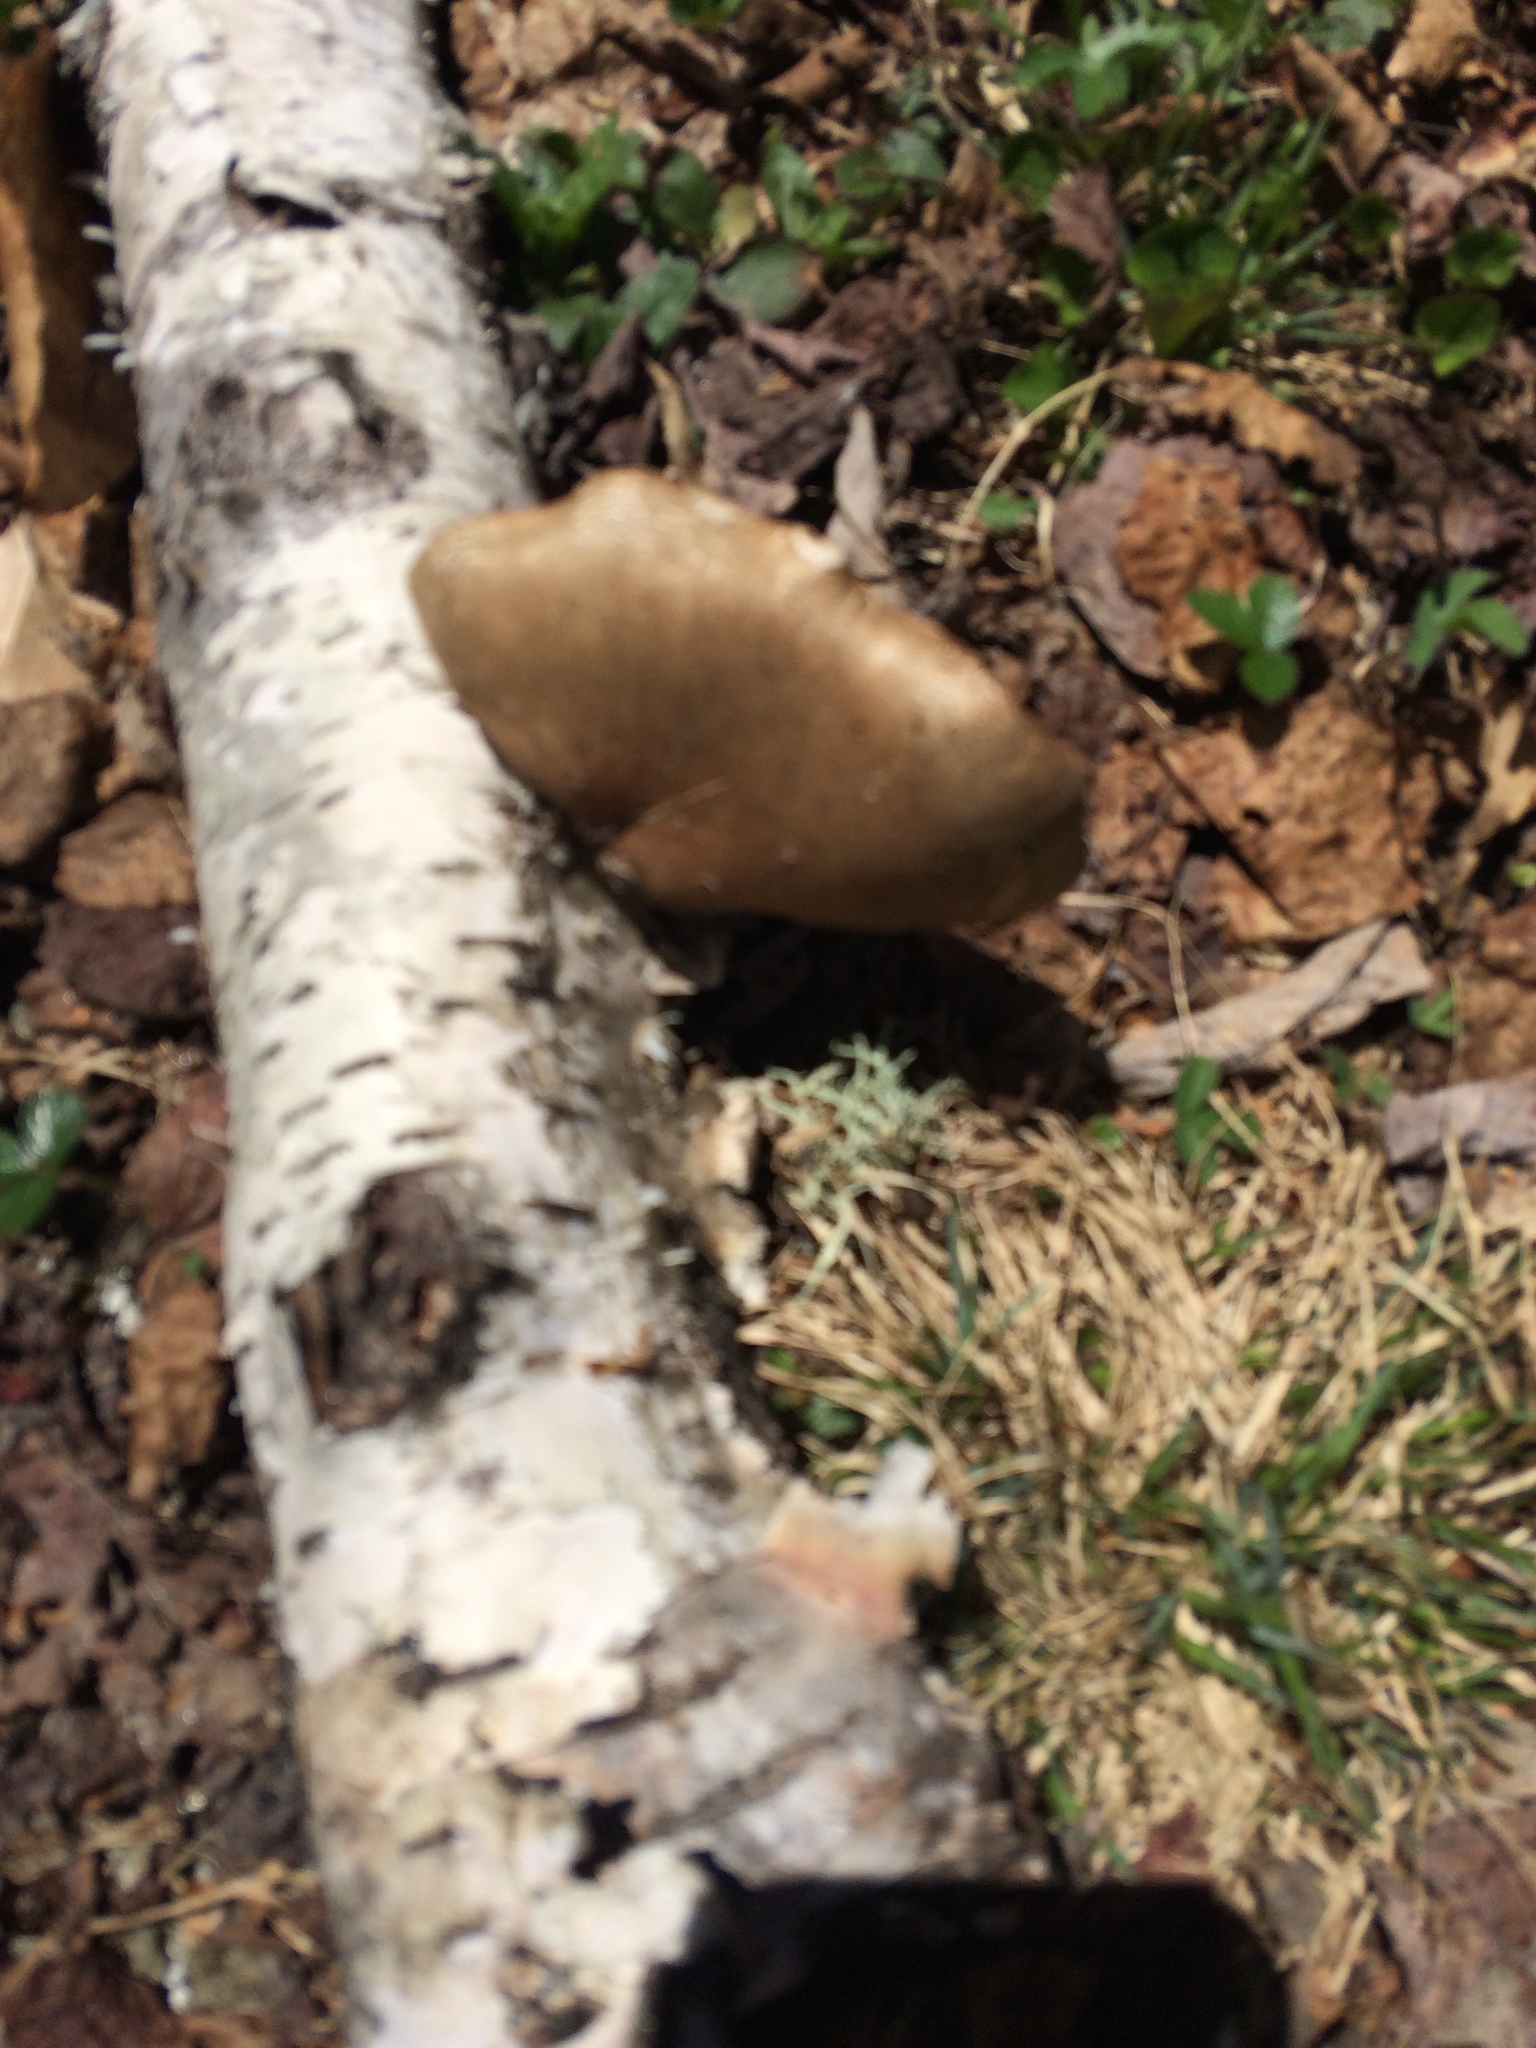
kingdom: Fungi
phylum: Basidiomycota
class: Agaricomycetes
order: Polyporales
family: Fomitopsidaceae
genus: Fomitopsis
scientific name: Fomitopsis betulina
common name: Birch polypore
